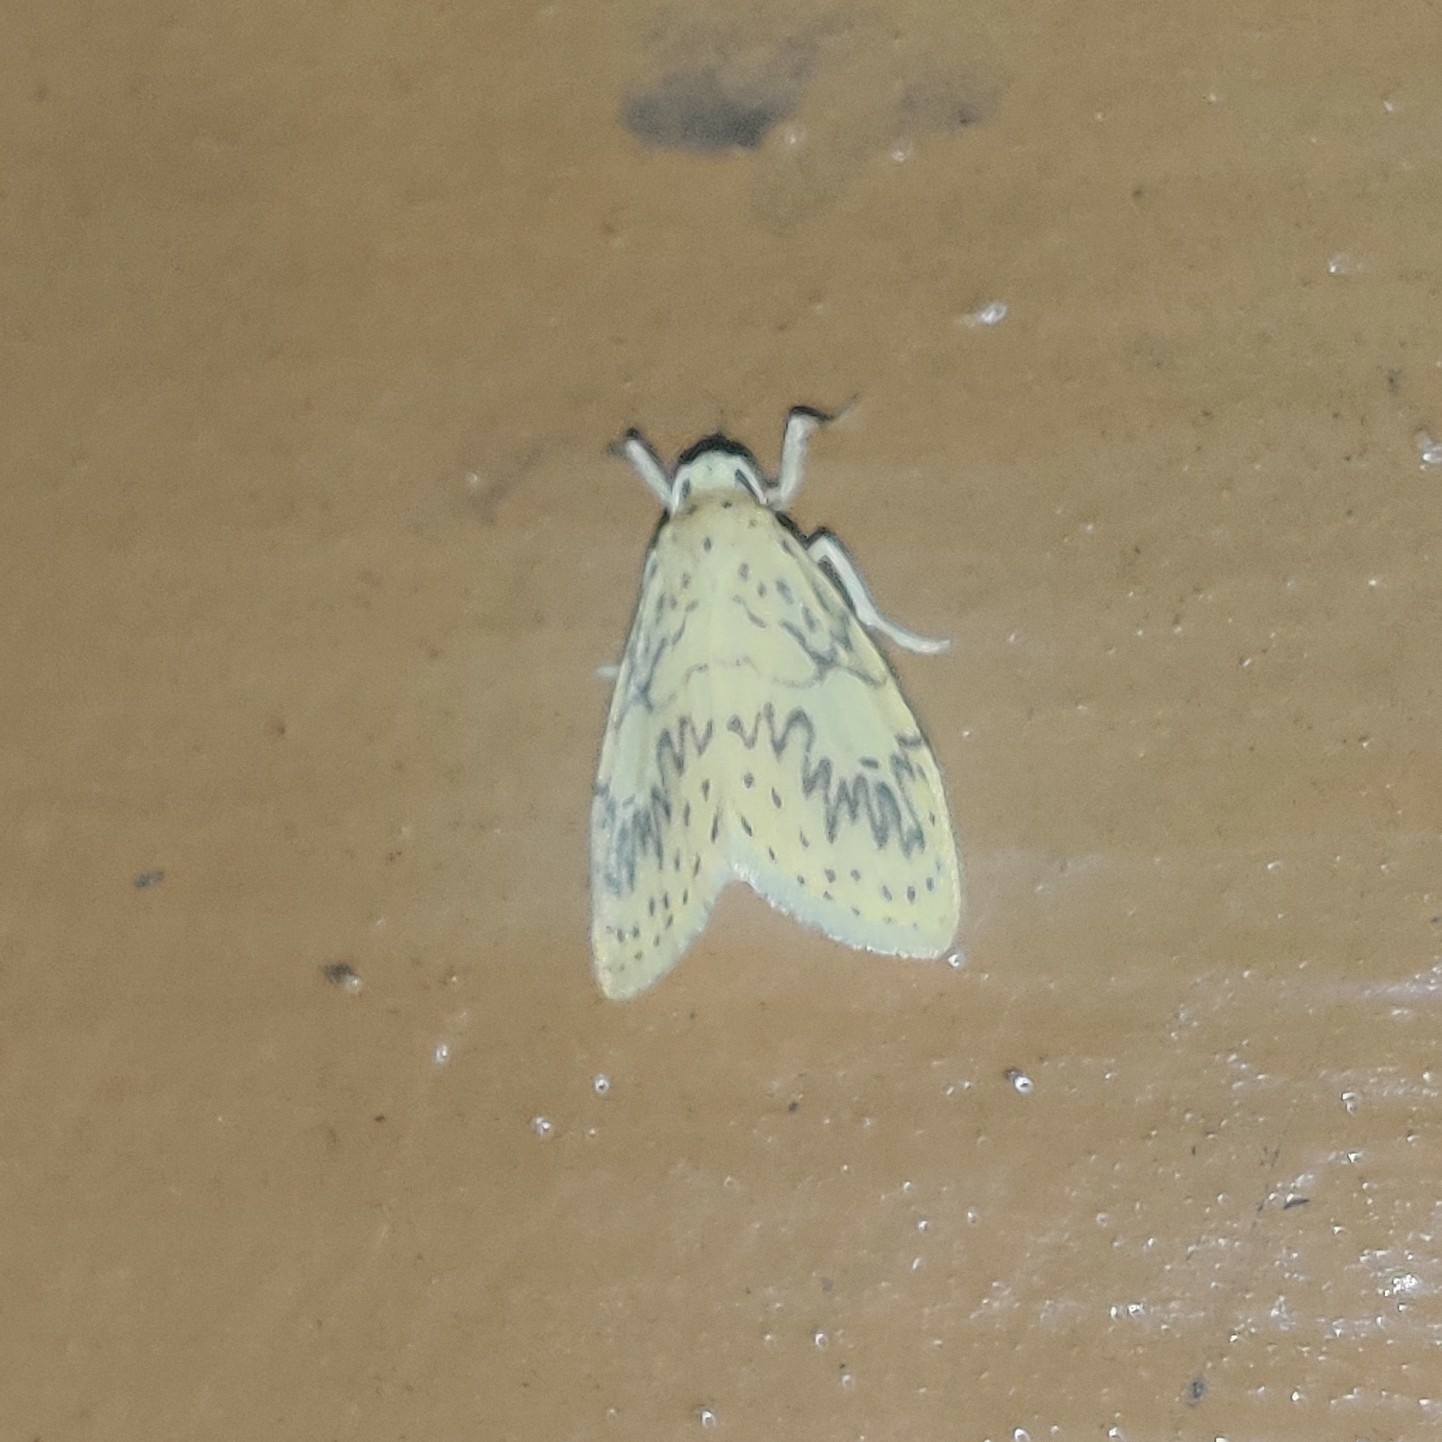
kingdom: Animalia
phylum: Arthropoda
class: Insecta
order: Lepidoptera
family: Erebidae
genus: Pseudobarsine
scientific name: Pseudobarsine bombdilensis
